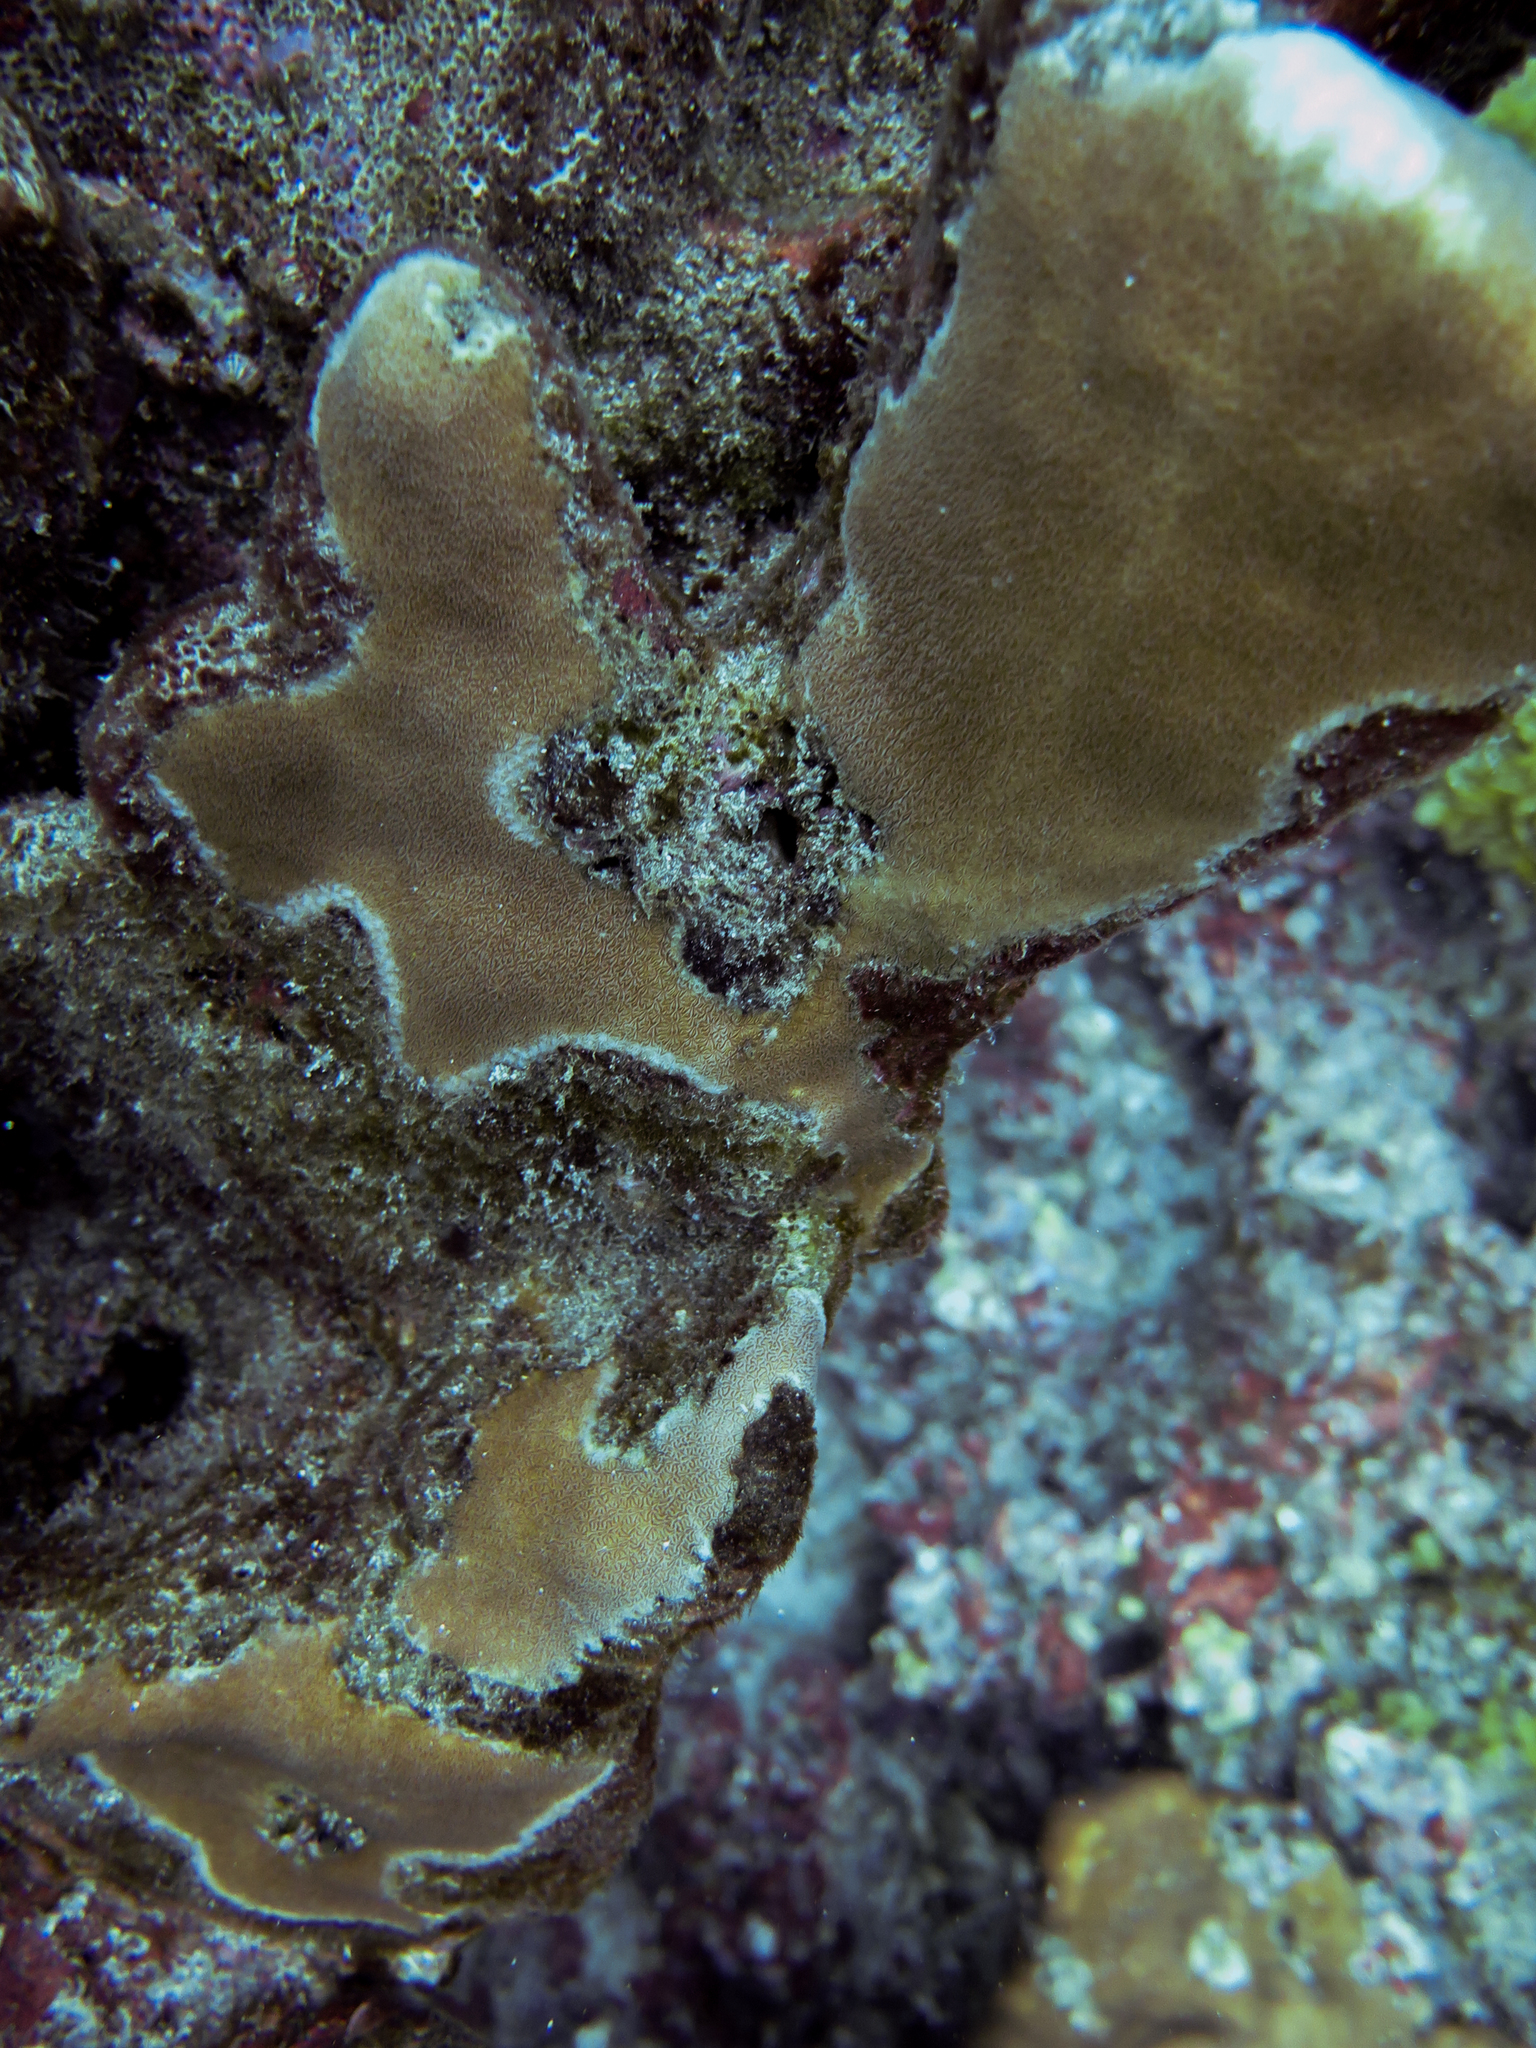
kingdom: Animalia
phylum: Cnidaria
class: Anthozoa
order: Scleractinia
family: Agariciidae
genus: Pavona
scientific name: Pavona duerdeni
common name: Leaf coral
